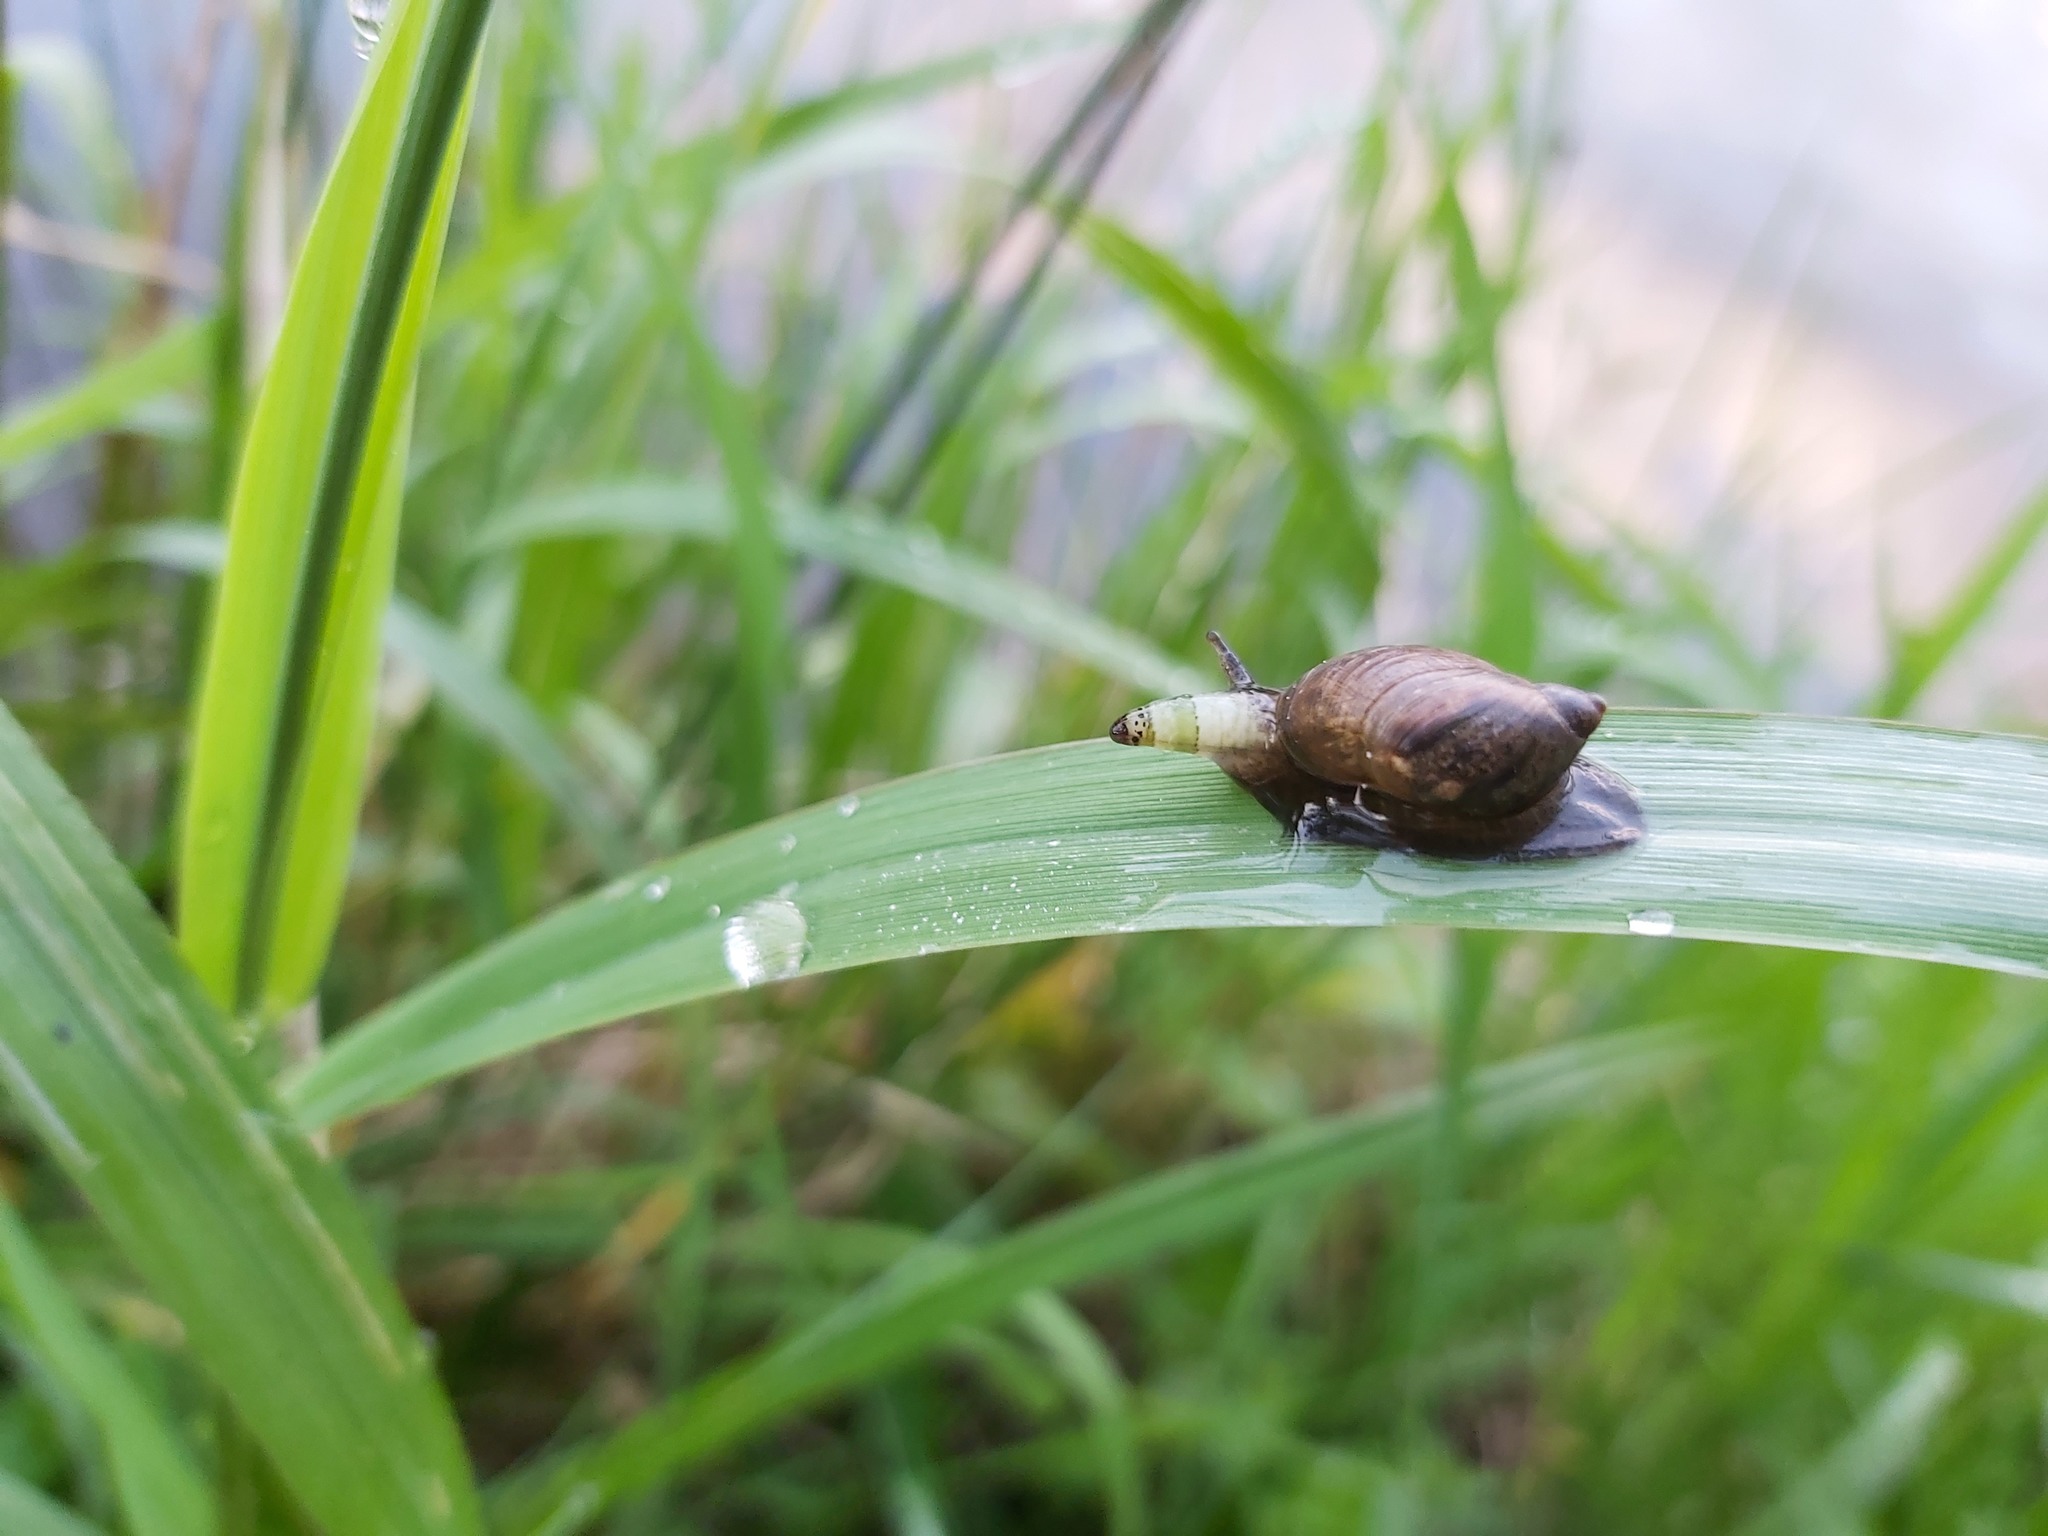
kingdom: Animalia
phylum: Platyhelminthes
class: Trematoda
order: Diplostomida
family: Leucochloridiidae
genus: Leucochloridium
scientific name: Leucochloridium paradoxum
